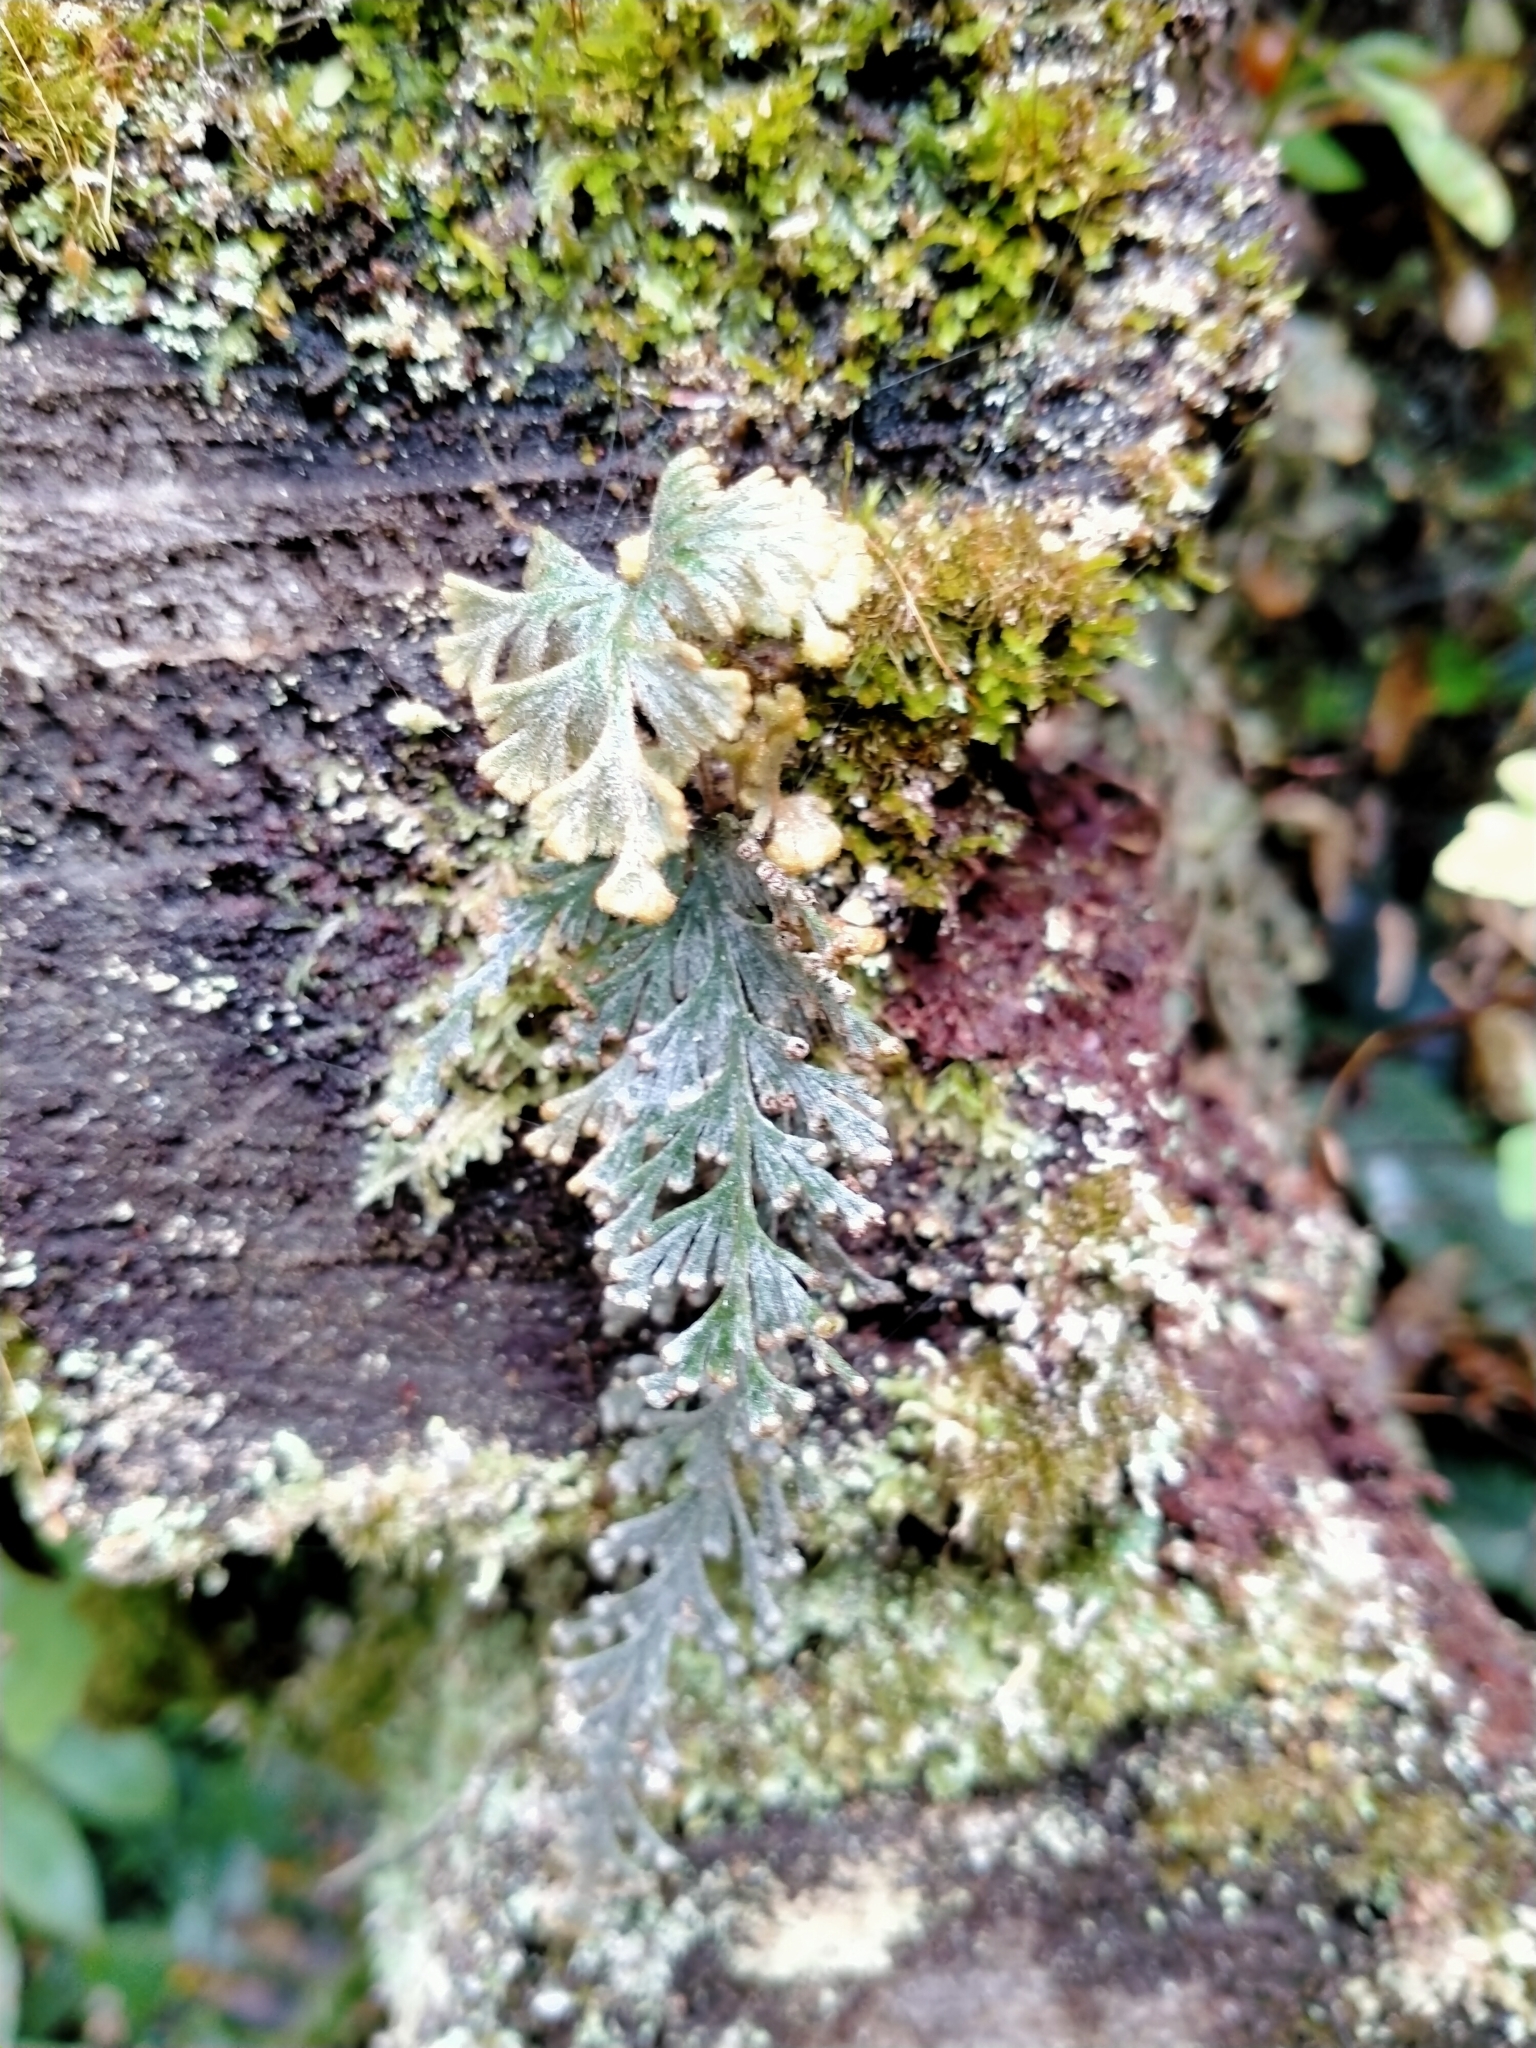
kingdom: Plantae
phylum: Tracheophyta
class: Polypodiopsida
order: Hymenophyllales
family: Hymenophyllaceae
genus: Hymenophyllum
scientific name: Hymenophyllum malingii
